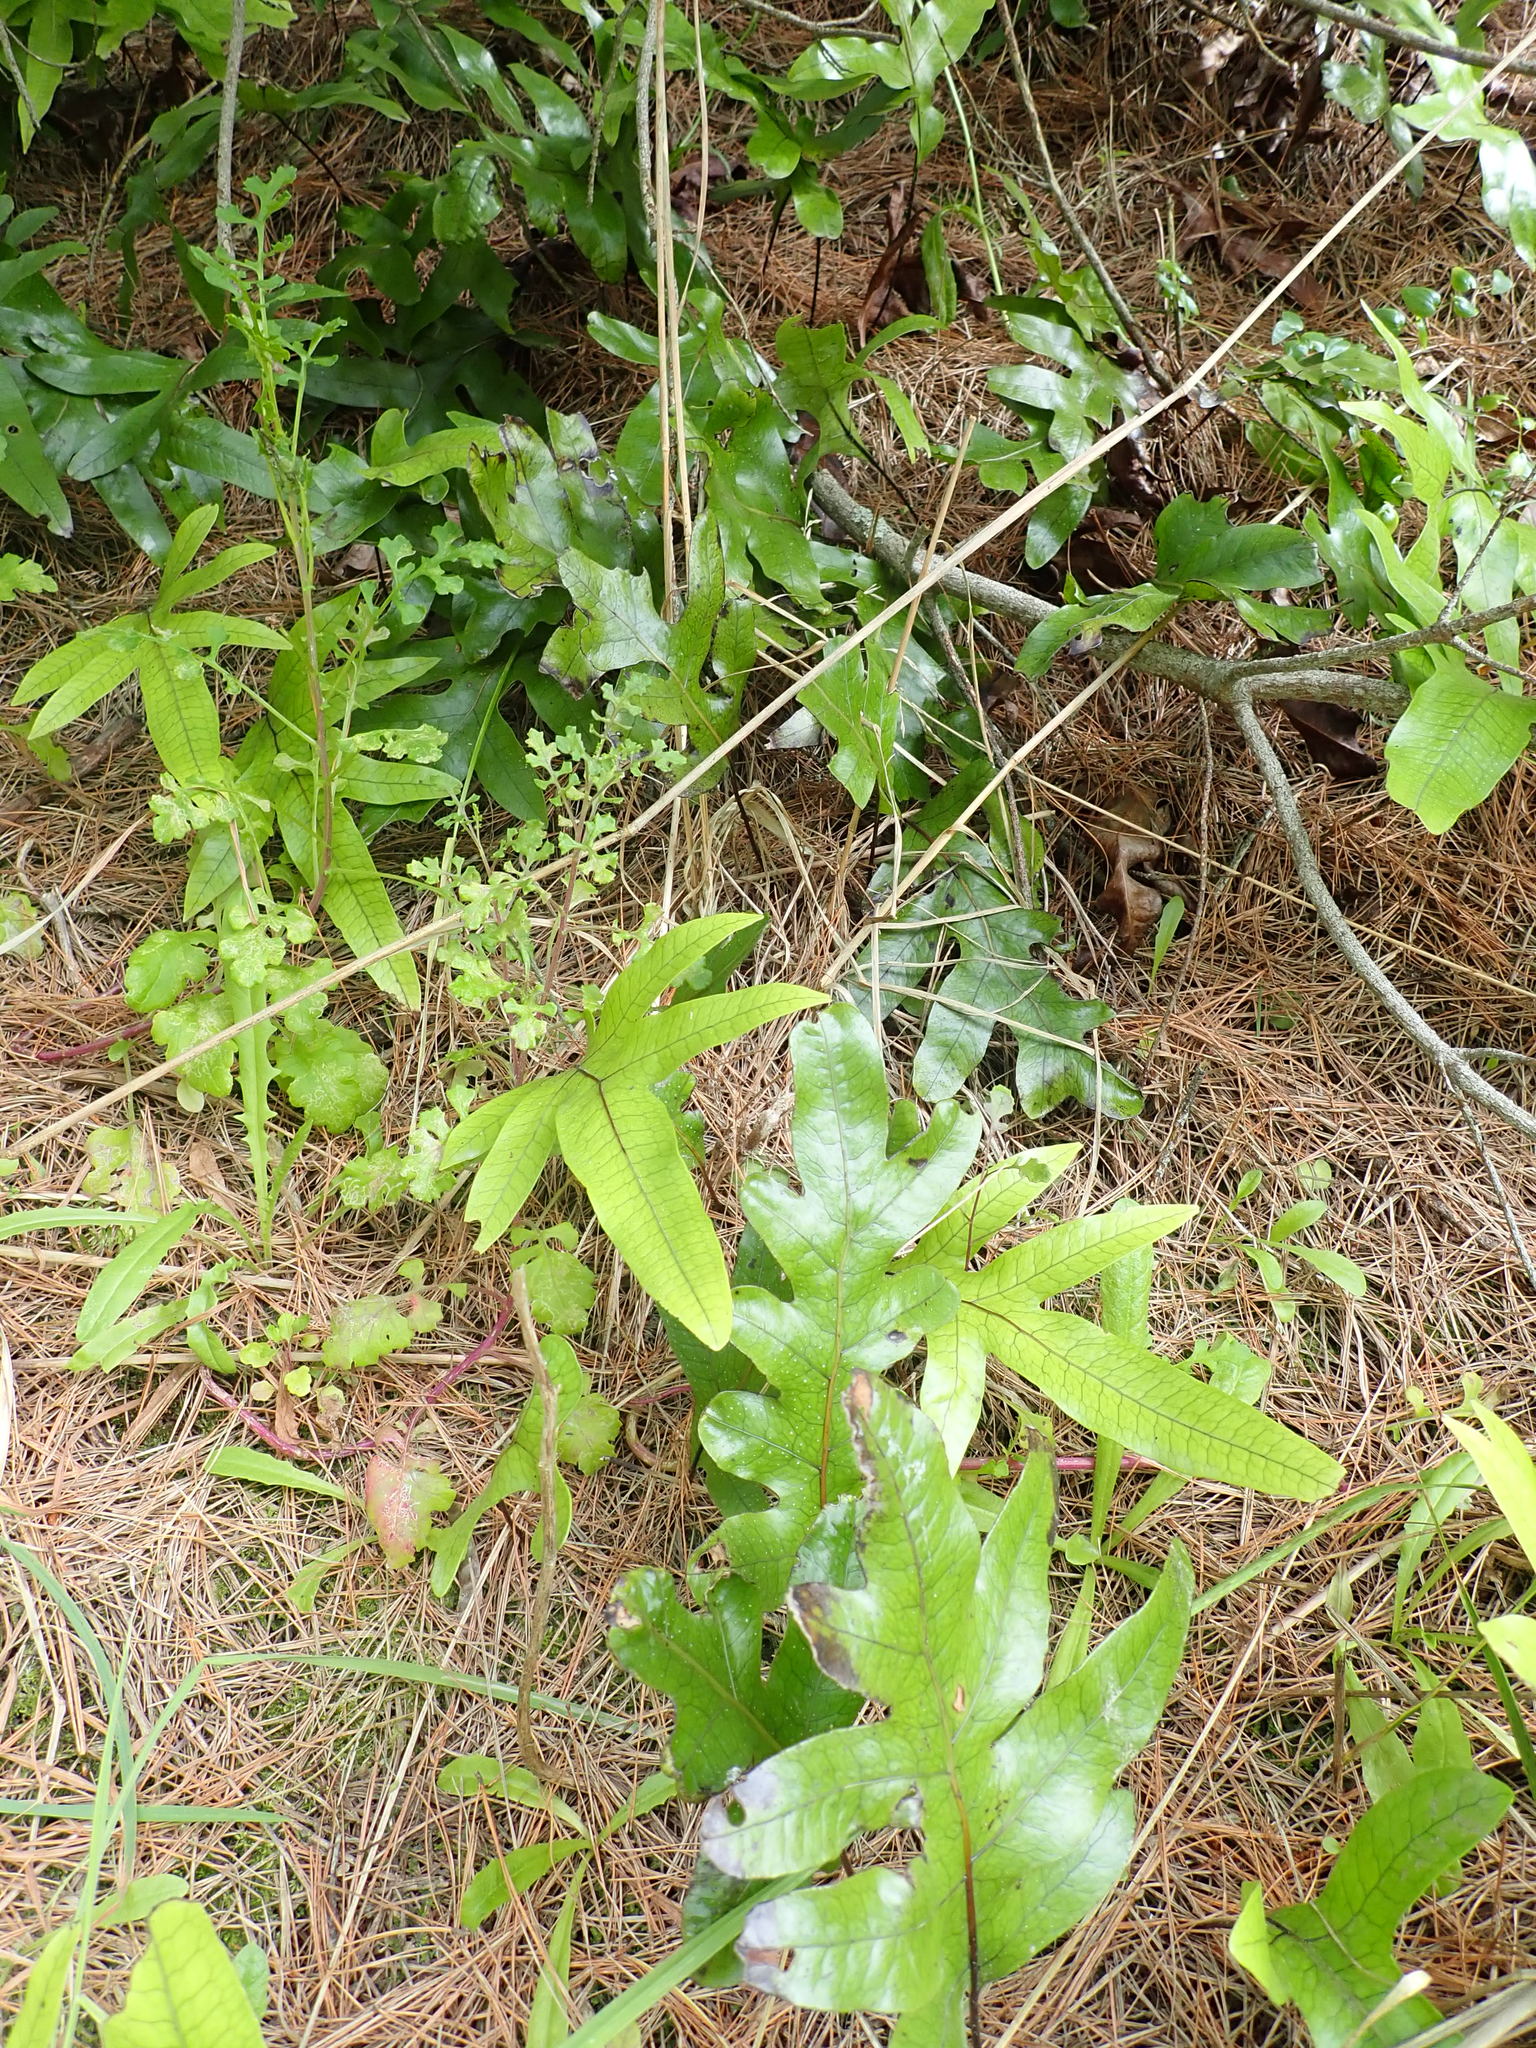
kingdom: Plantae
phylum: Tracheophyta
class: Polypodiopsida
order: Polypodiales
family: Polypodiaceae
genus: Lecanopteris
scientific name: Lecanopteris pustulata
